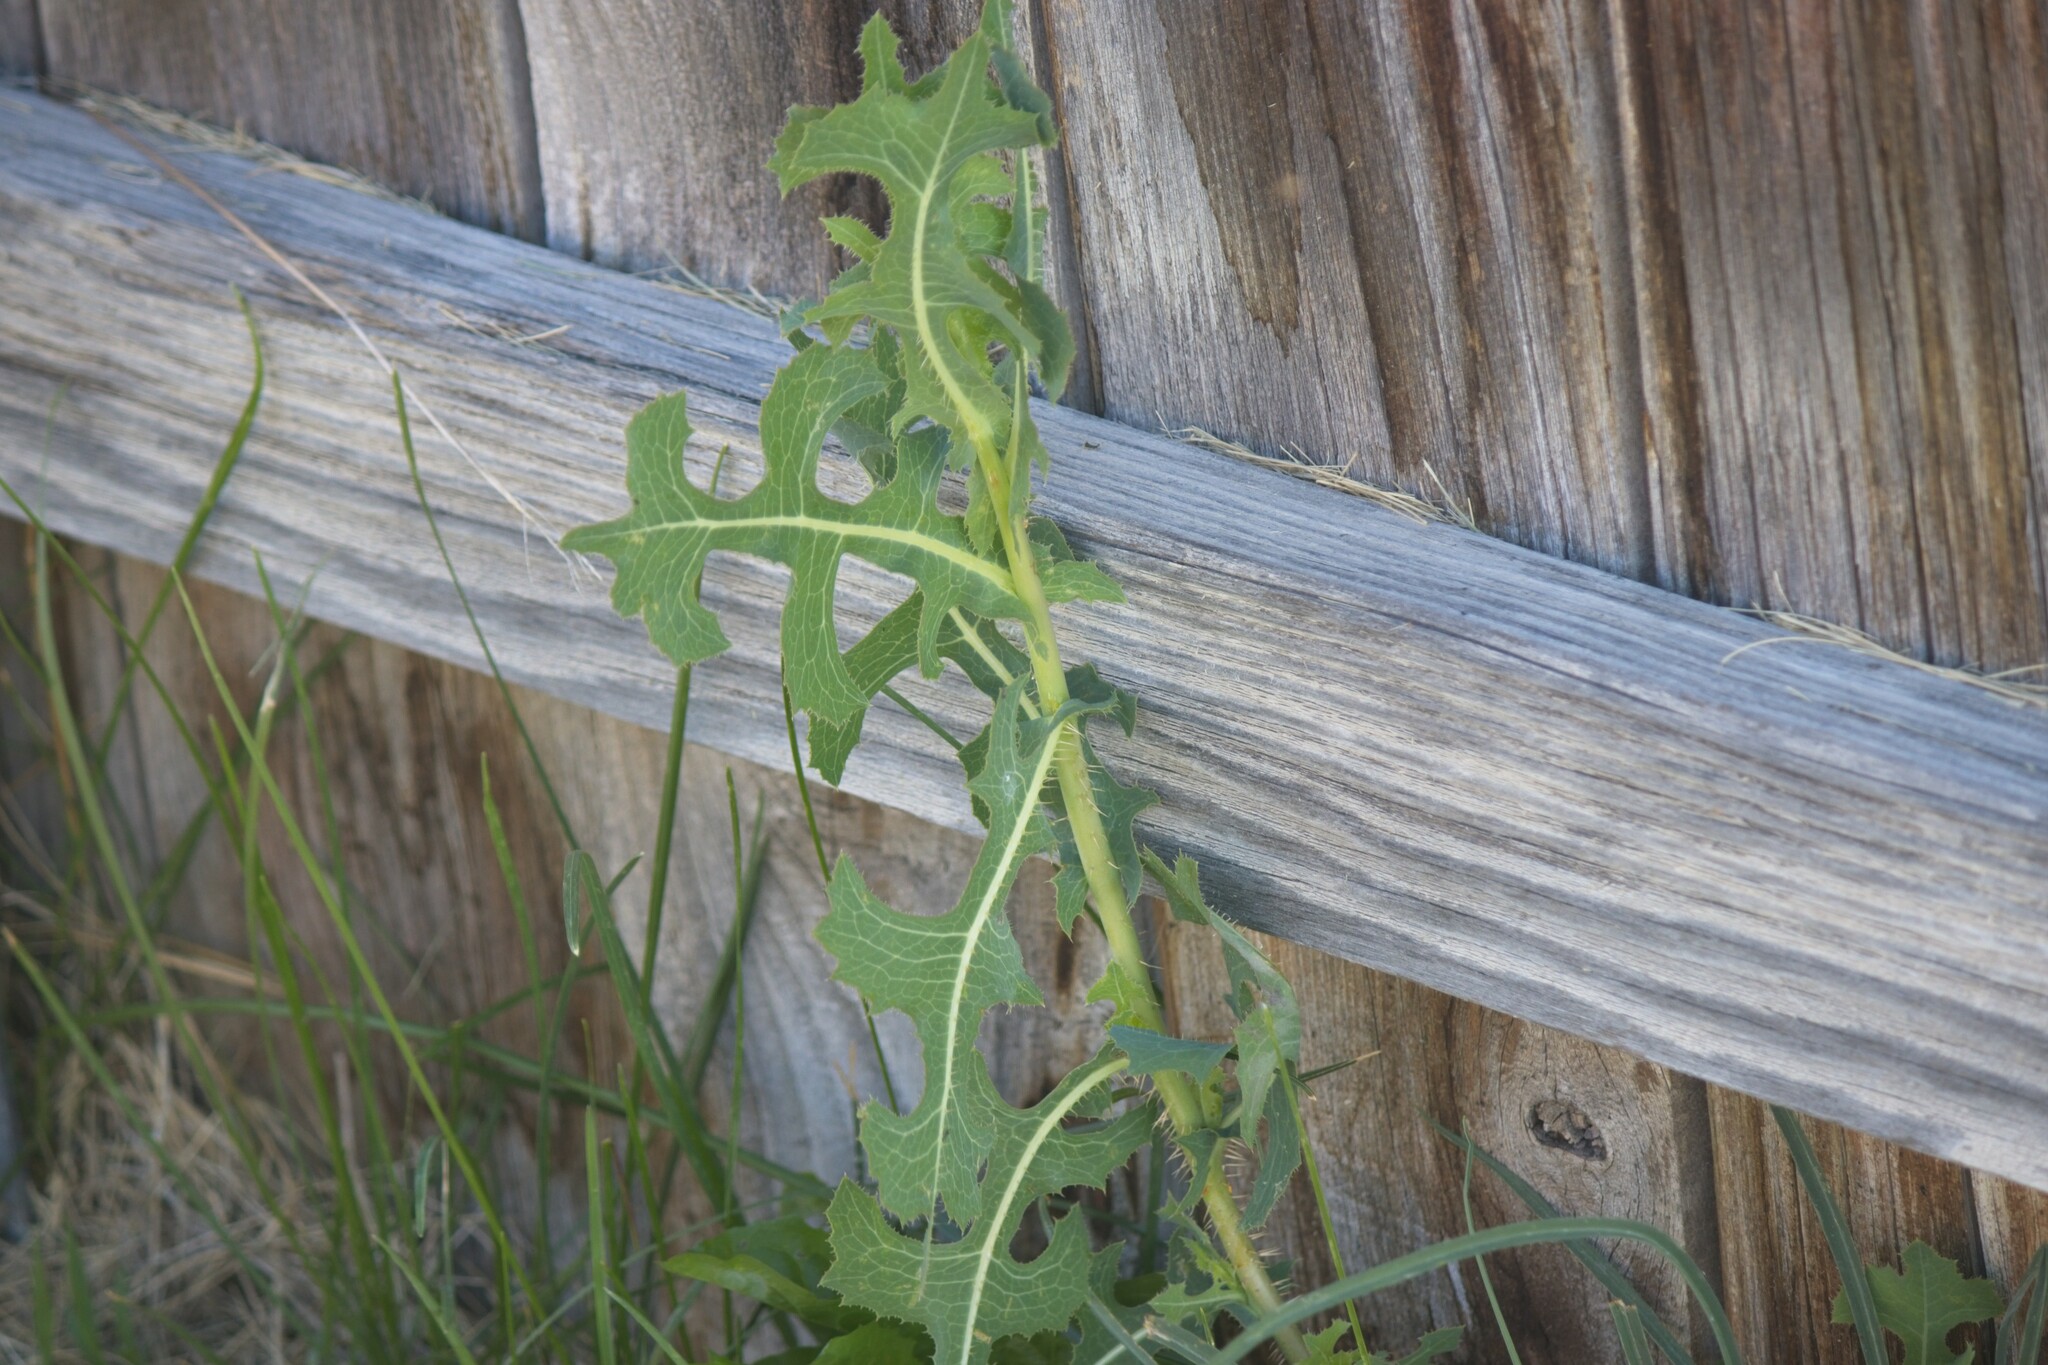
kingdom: Plantae
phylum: Tracheophyta
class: Magnoliopsida
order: Asterales
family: Asteraceae
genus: Lactuca
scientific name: Lactuca serriola
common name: Prickly lettuce
